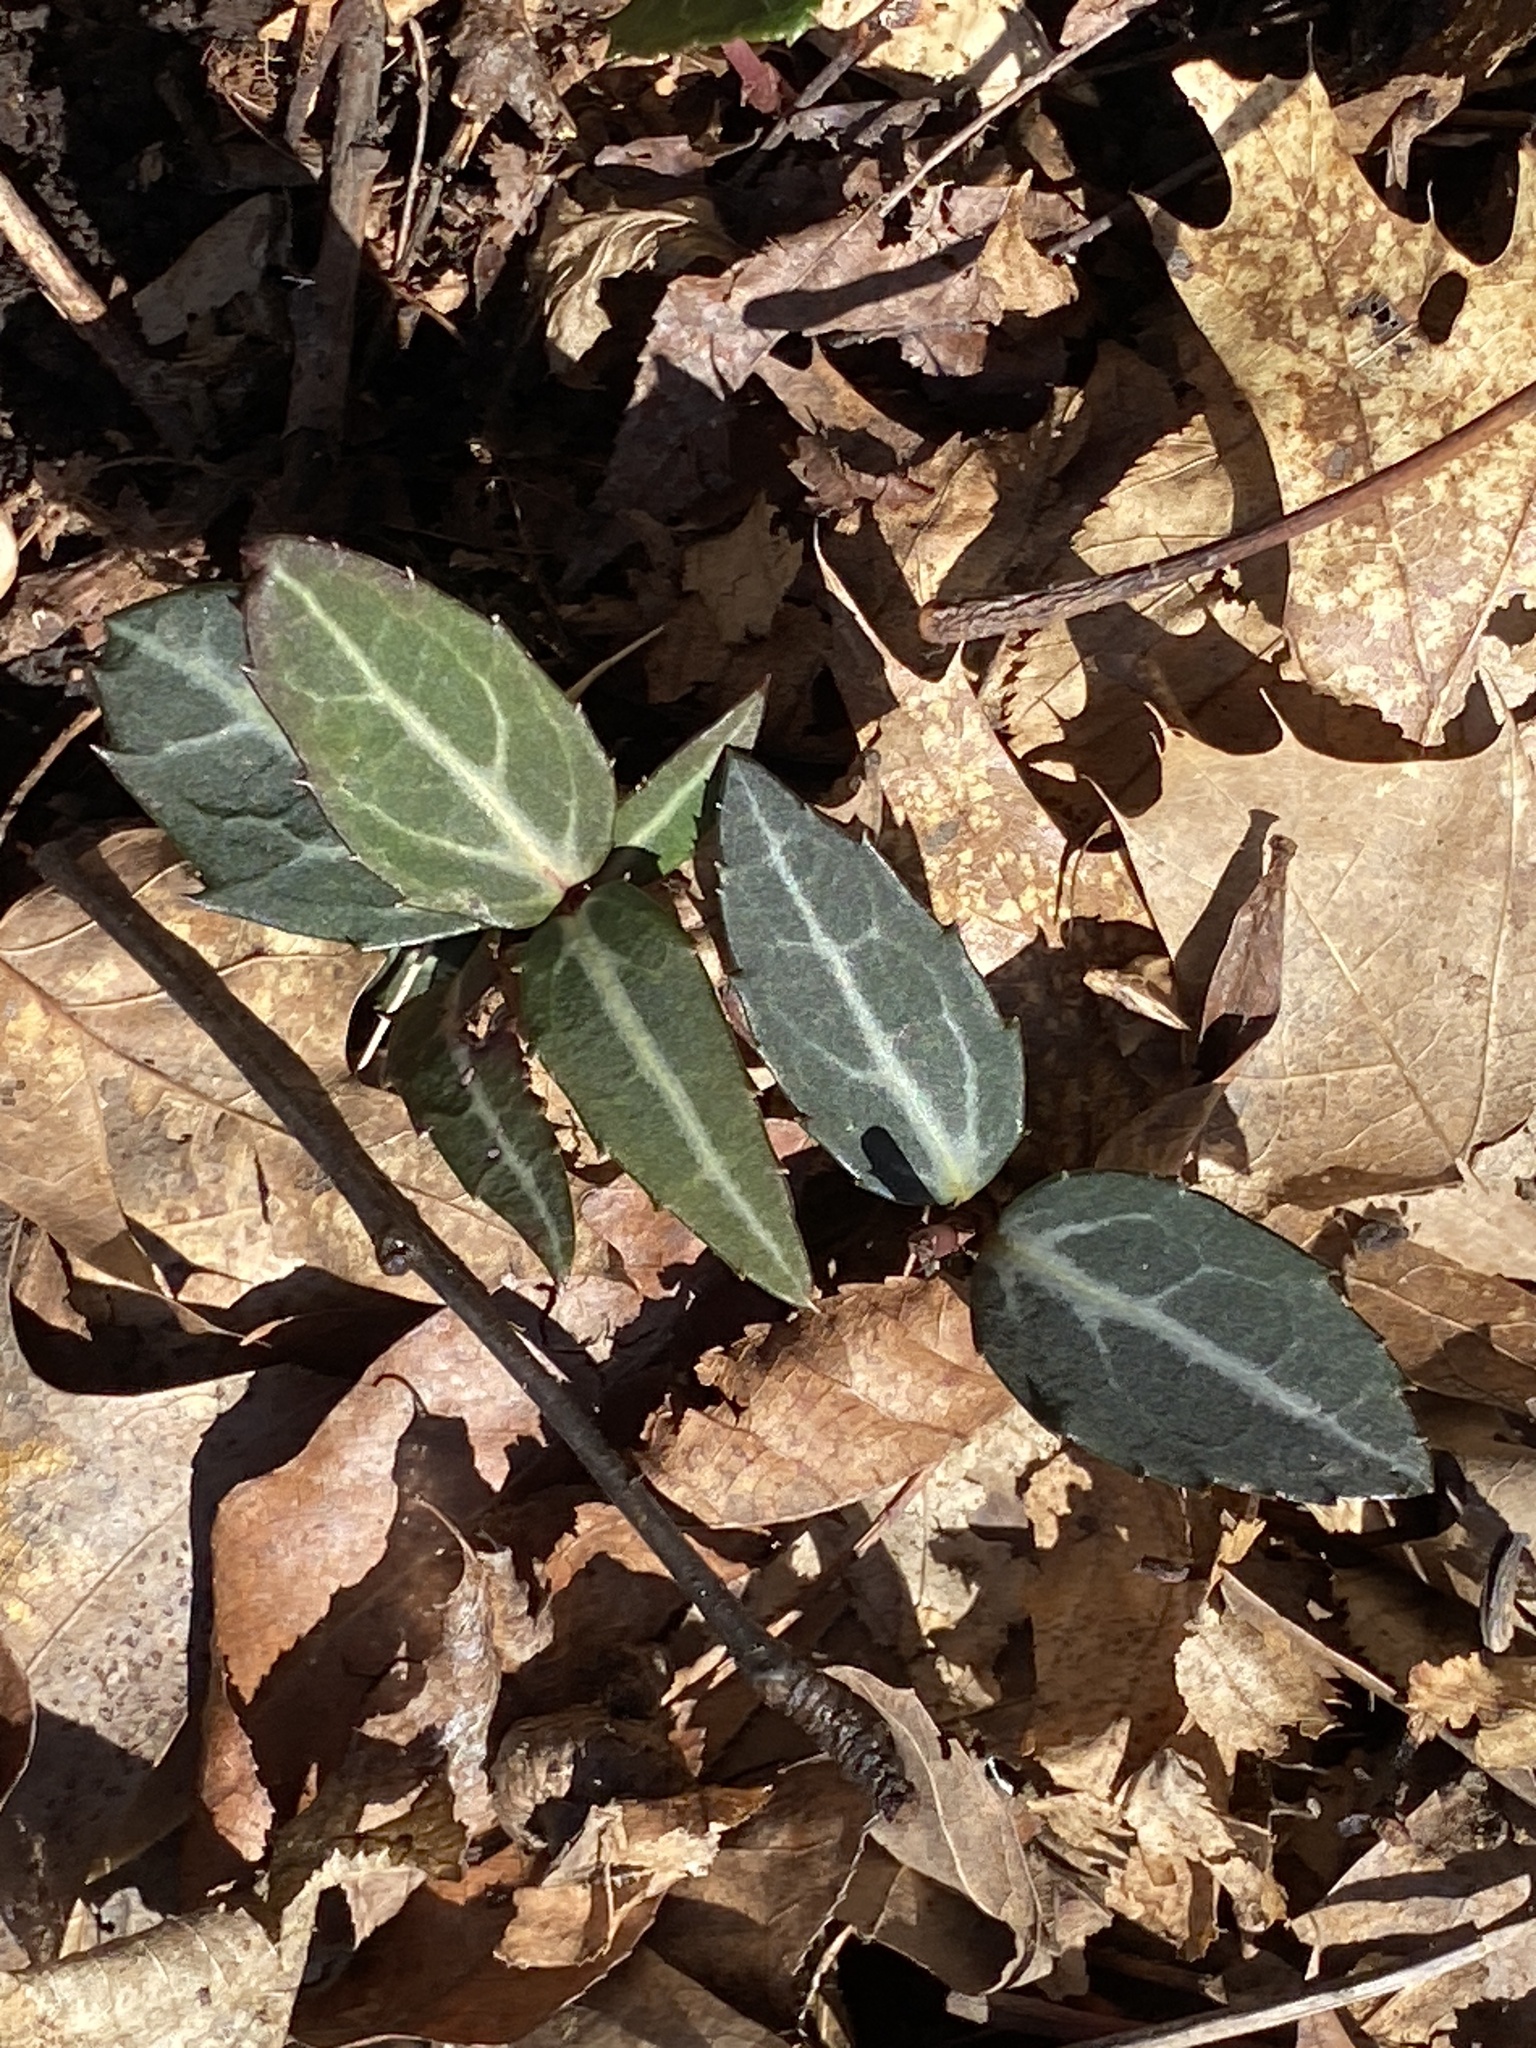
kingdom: Plantae
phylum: Tracheophyta
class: Magnoliopsida
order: Ericales
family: Ericaceae
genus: Chimaphila
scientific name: Chimaphila maculata
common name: Spotted pipsissewa
